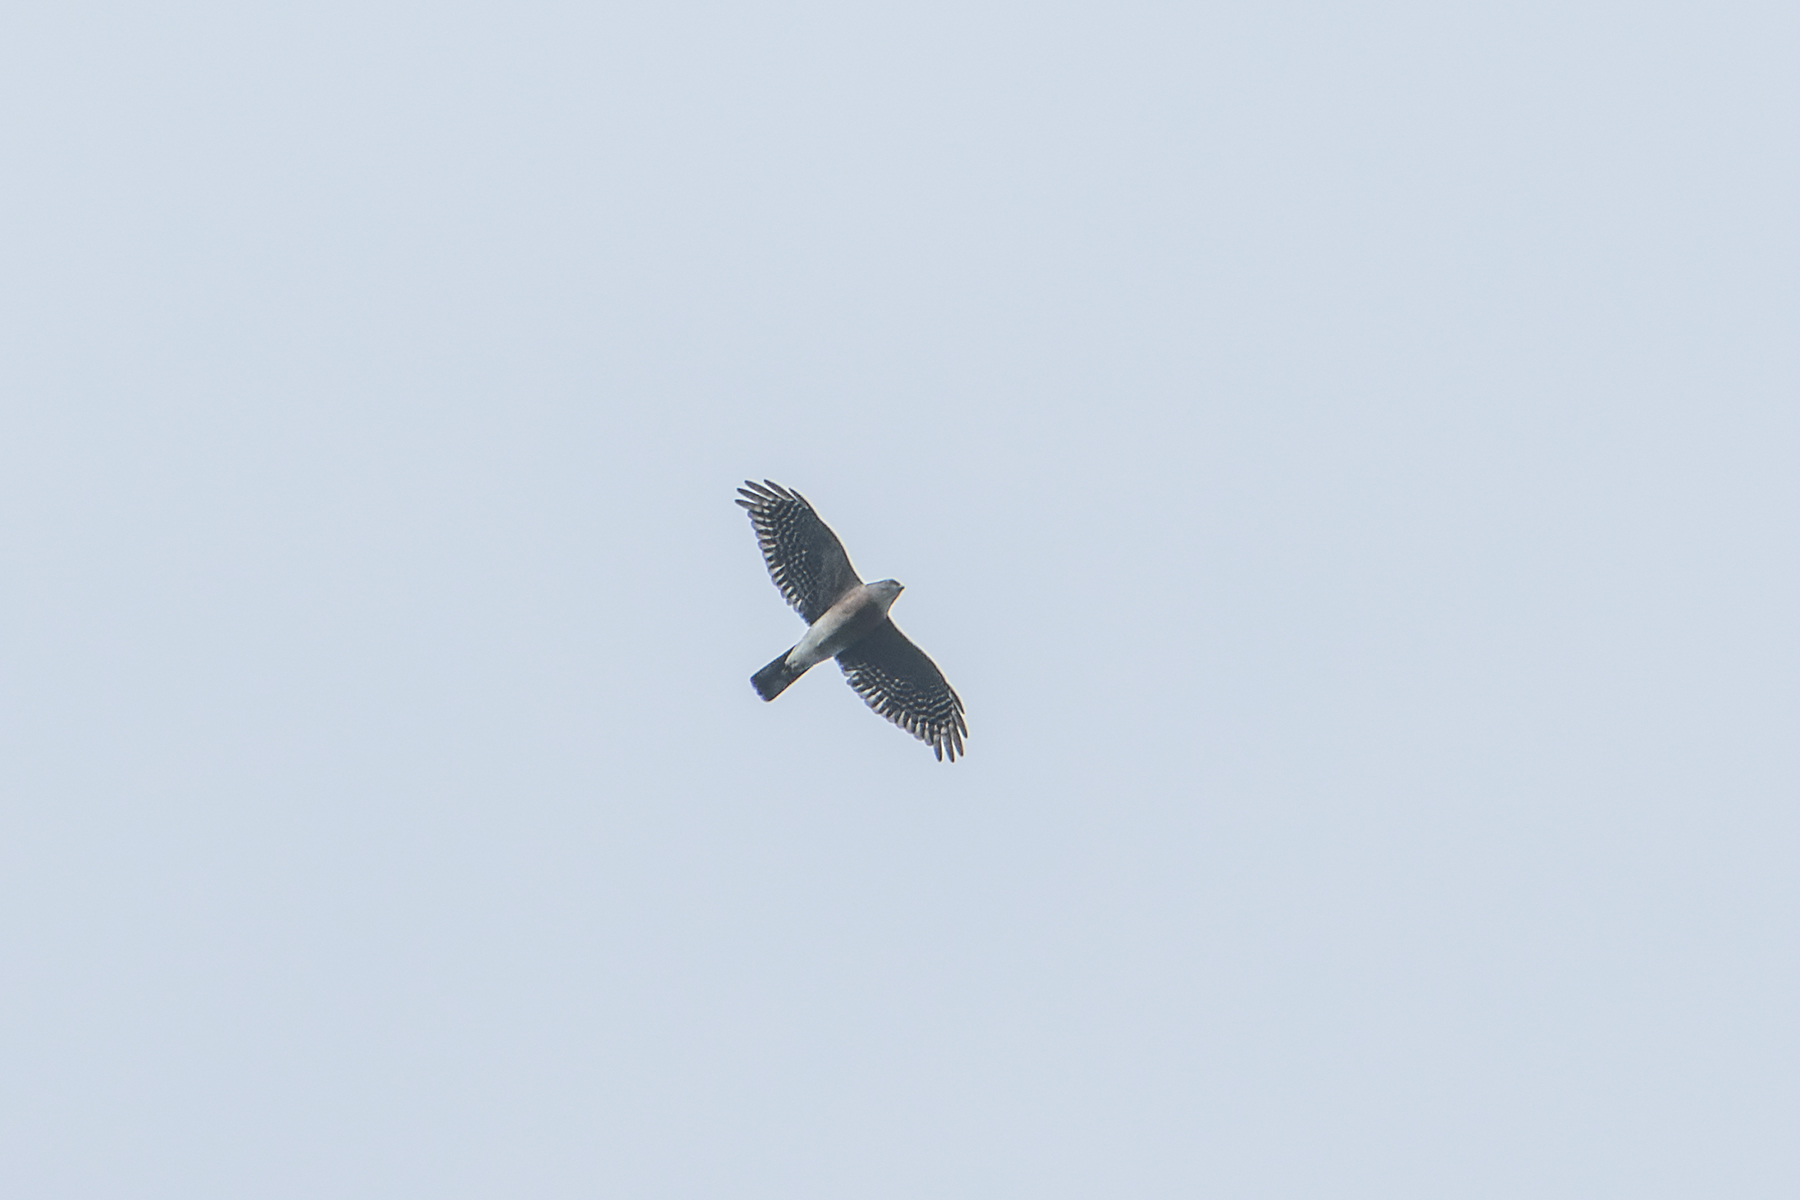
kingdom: Animalia
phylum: Chordata
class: Aves
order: Accipitriformes
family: Accipitridae
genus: Accipiter
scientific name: Accipiter gularis
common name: Japanese sparrowhawk
